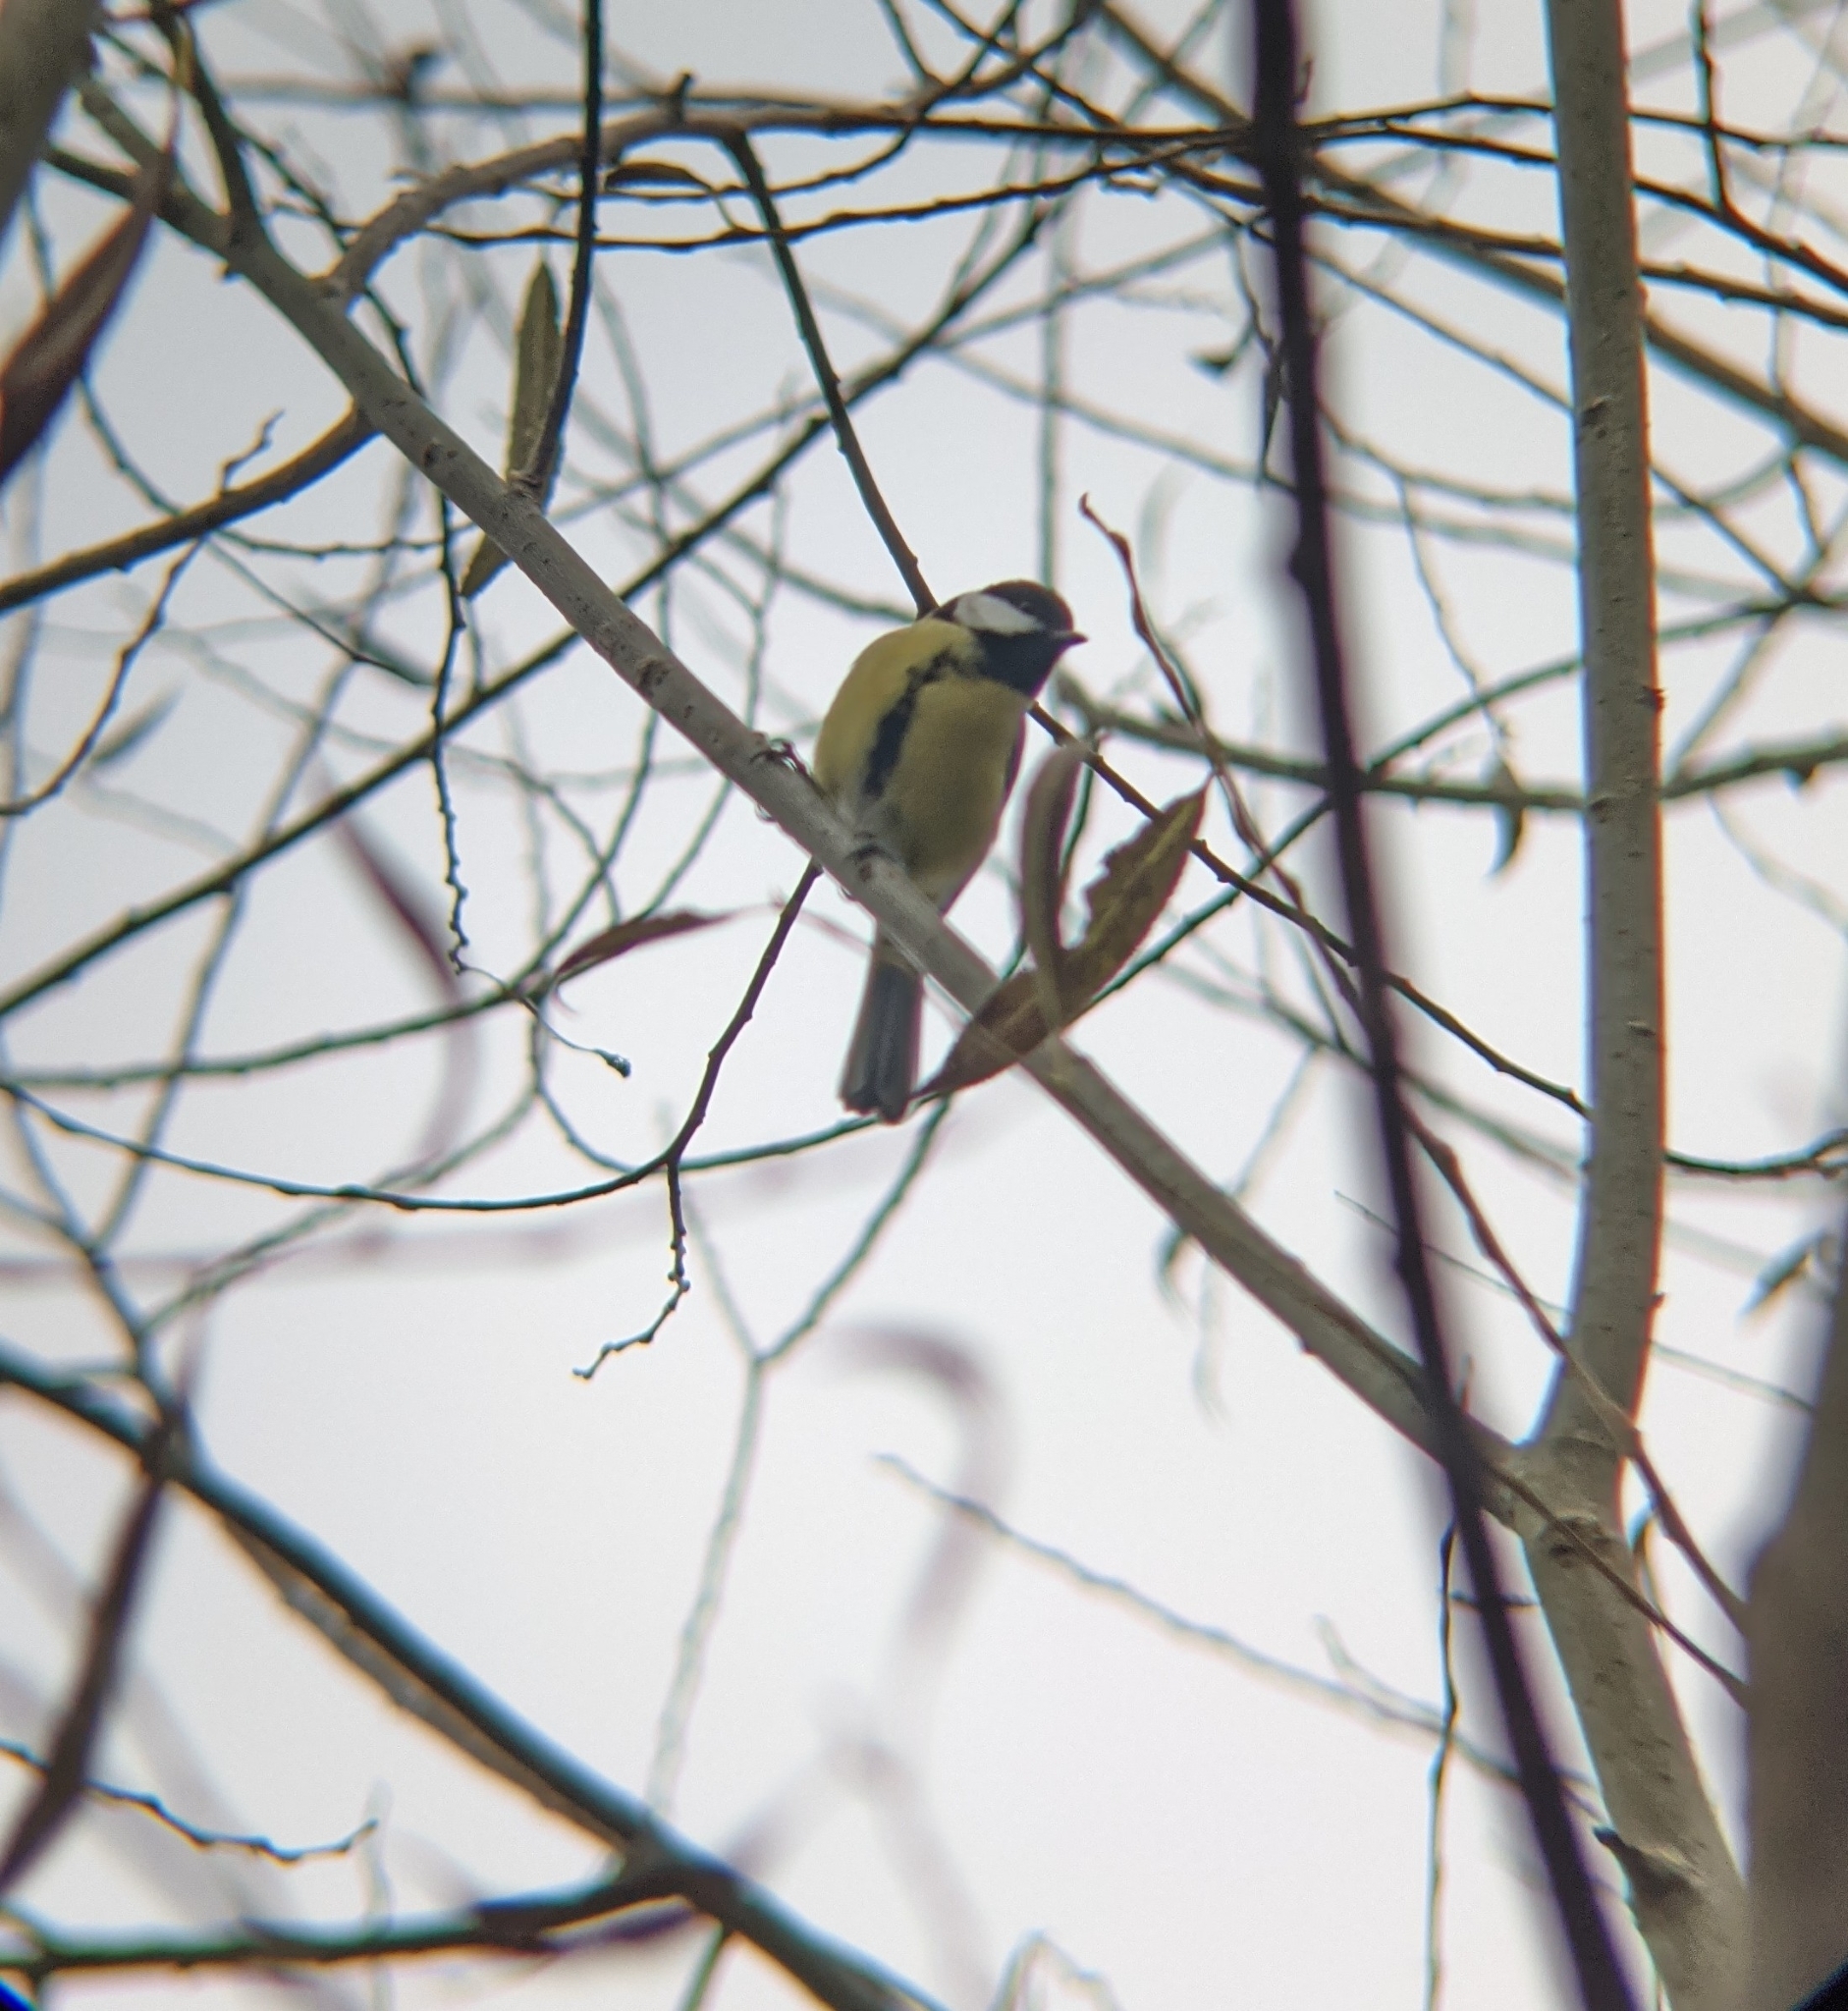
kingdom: Animalia
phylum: Chordata
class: Aves
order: Passeriformes
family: Paridae
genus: Parus
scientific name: Parus major
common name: Great tit
